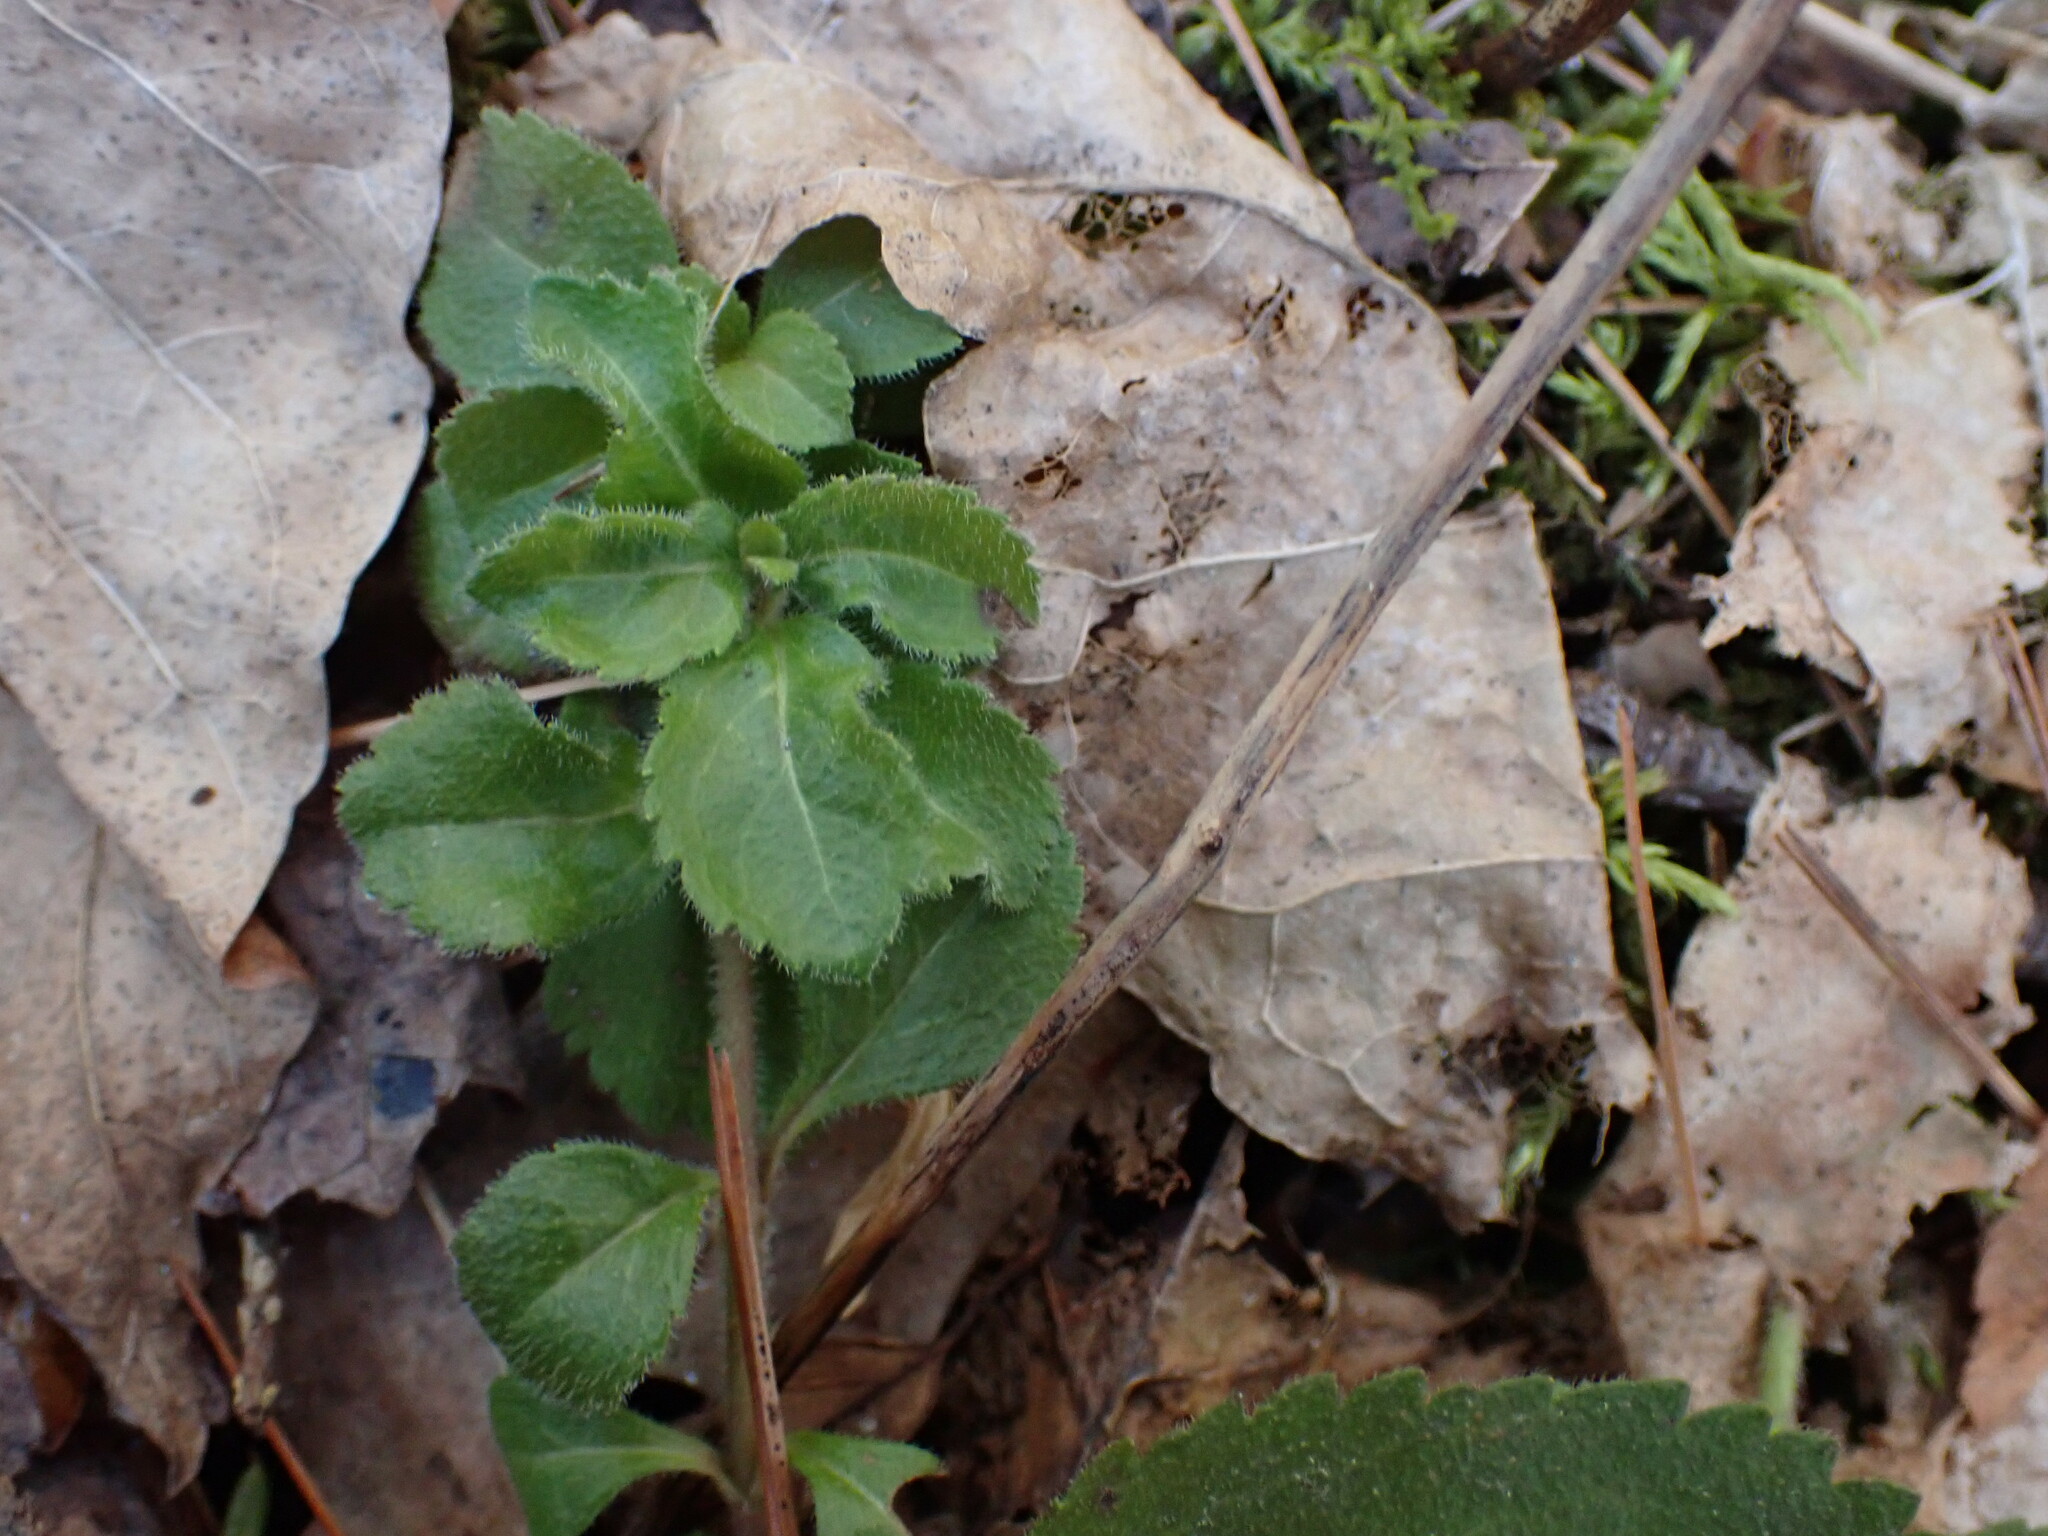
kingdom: Plantae
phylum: Tracheophyta
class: Magnoliopsida
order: Lamiales
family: Plantaginaceae
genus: Veronica
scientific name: Veronica officinalis
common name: Common speedwell
